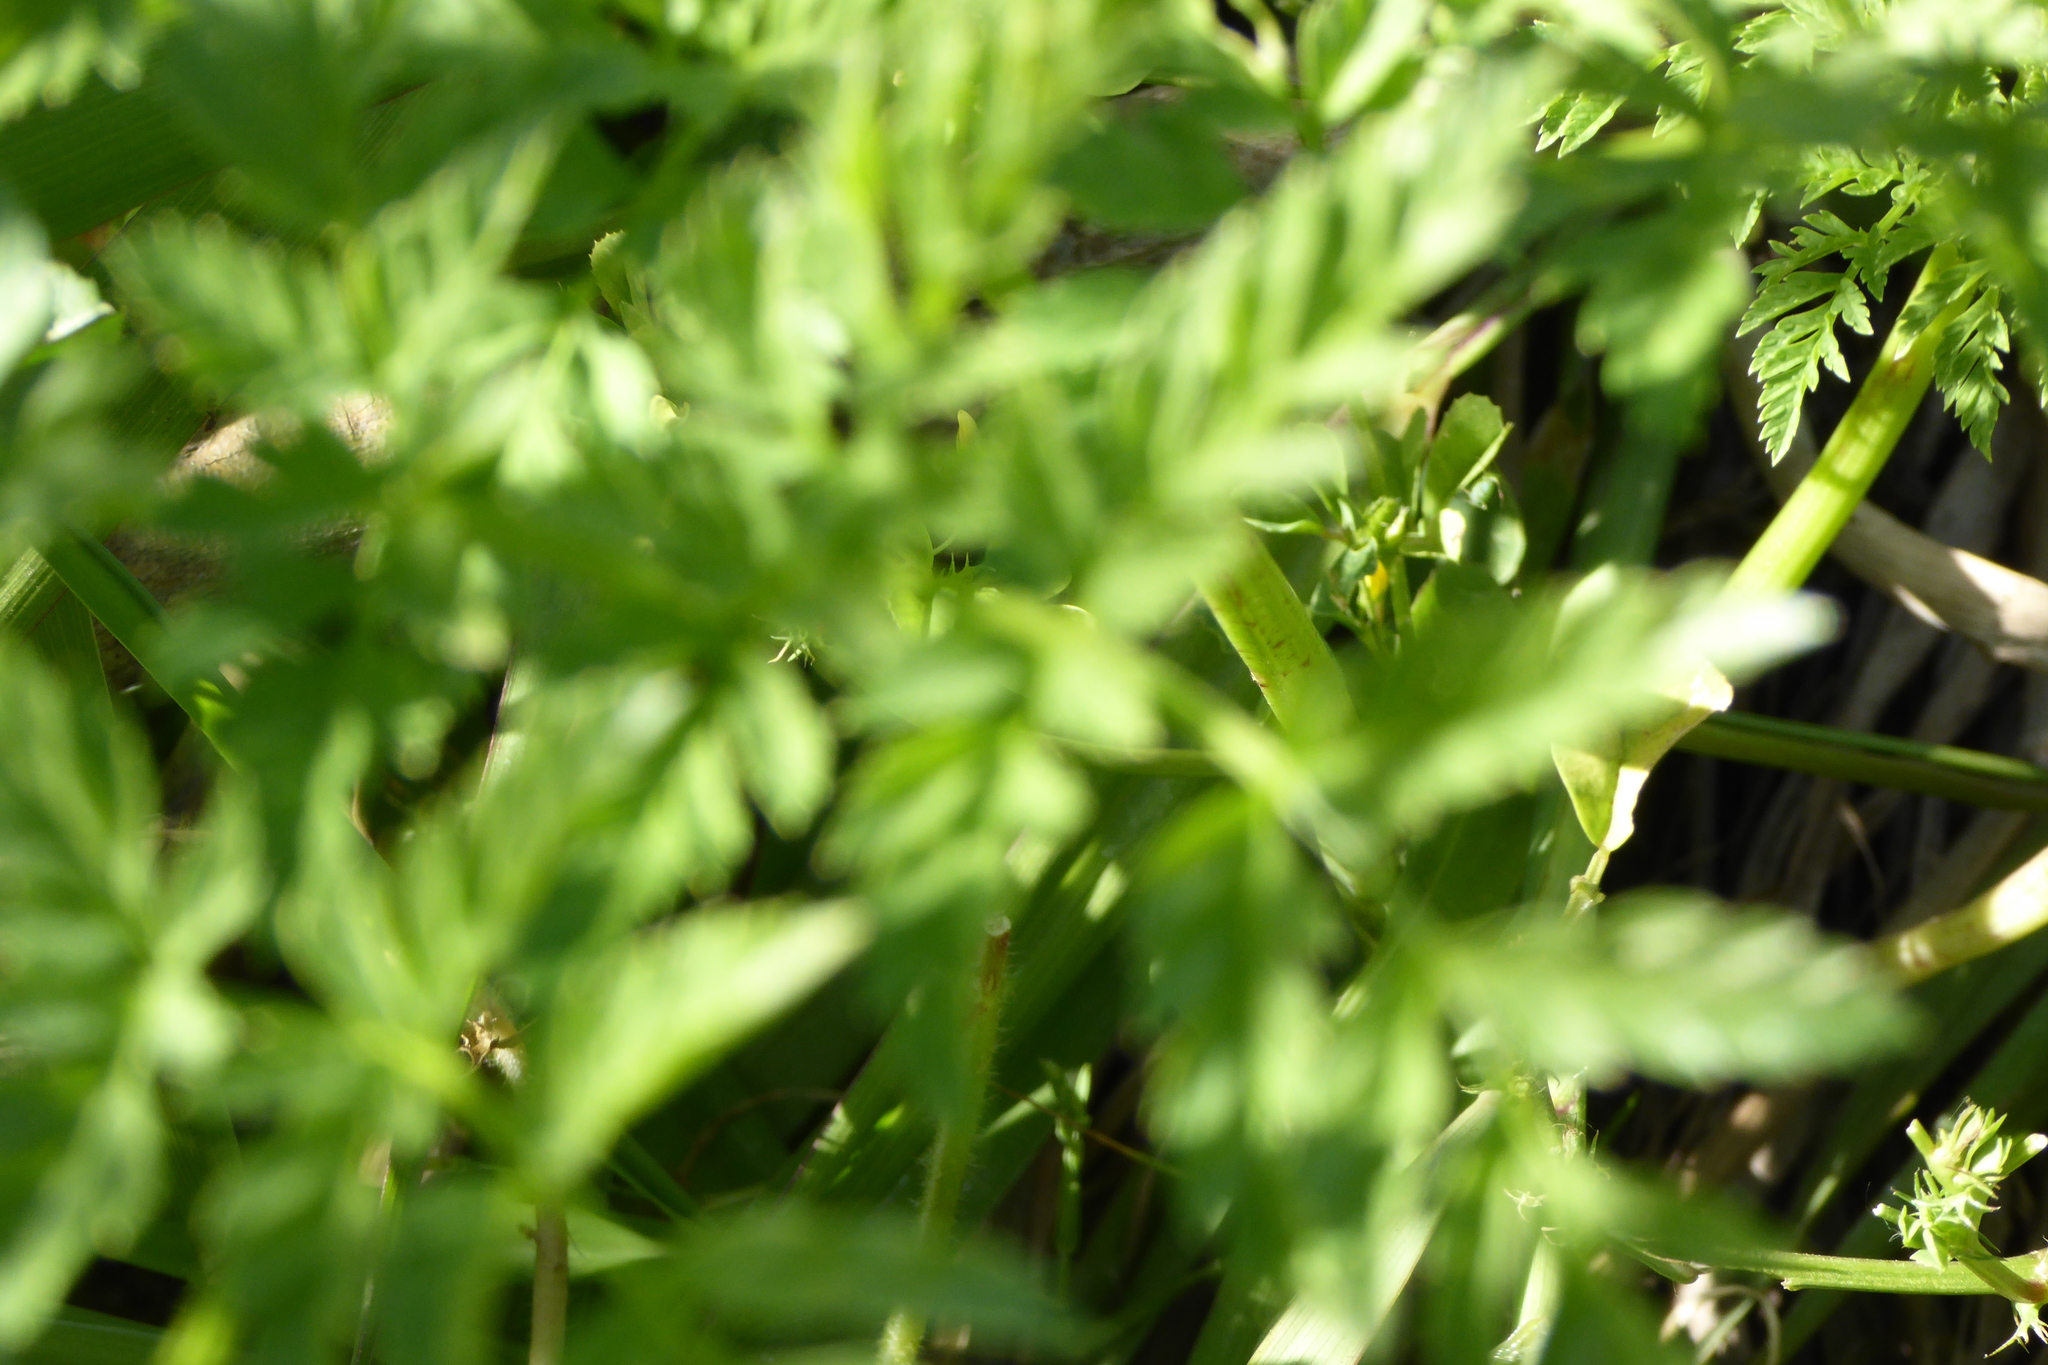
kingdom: Plantae
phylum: Tracheophyta
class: Magnoliopsida
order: Apiales
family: Apiaceae
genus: Conium
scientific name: Conium maculatum
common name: Hemlock
